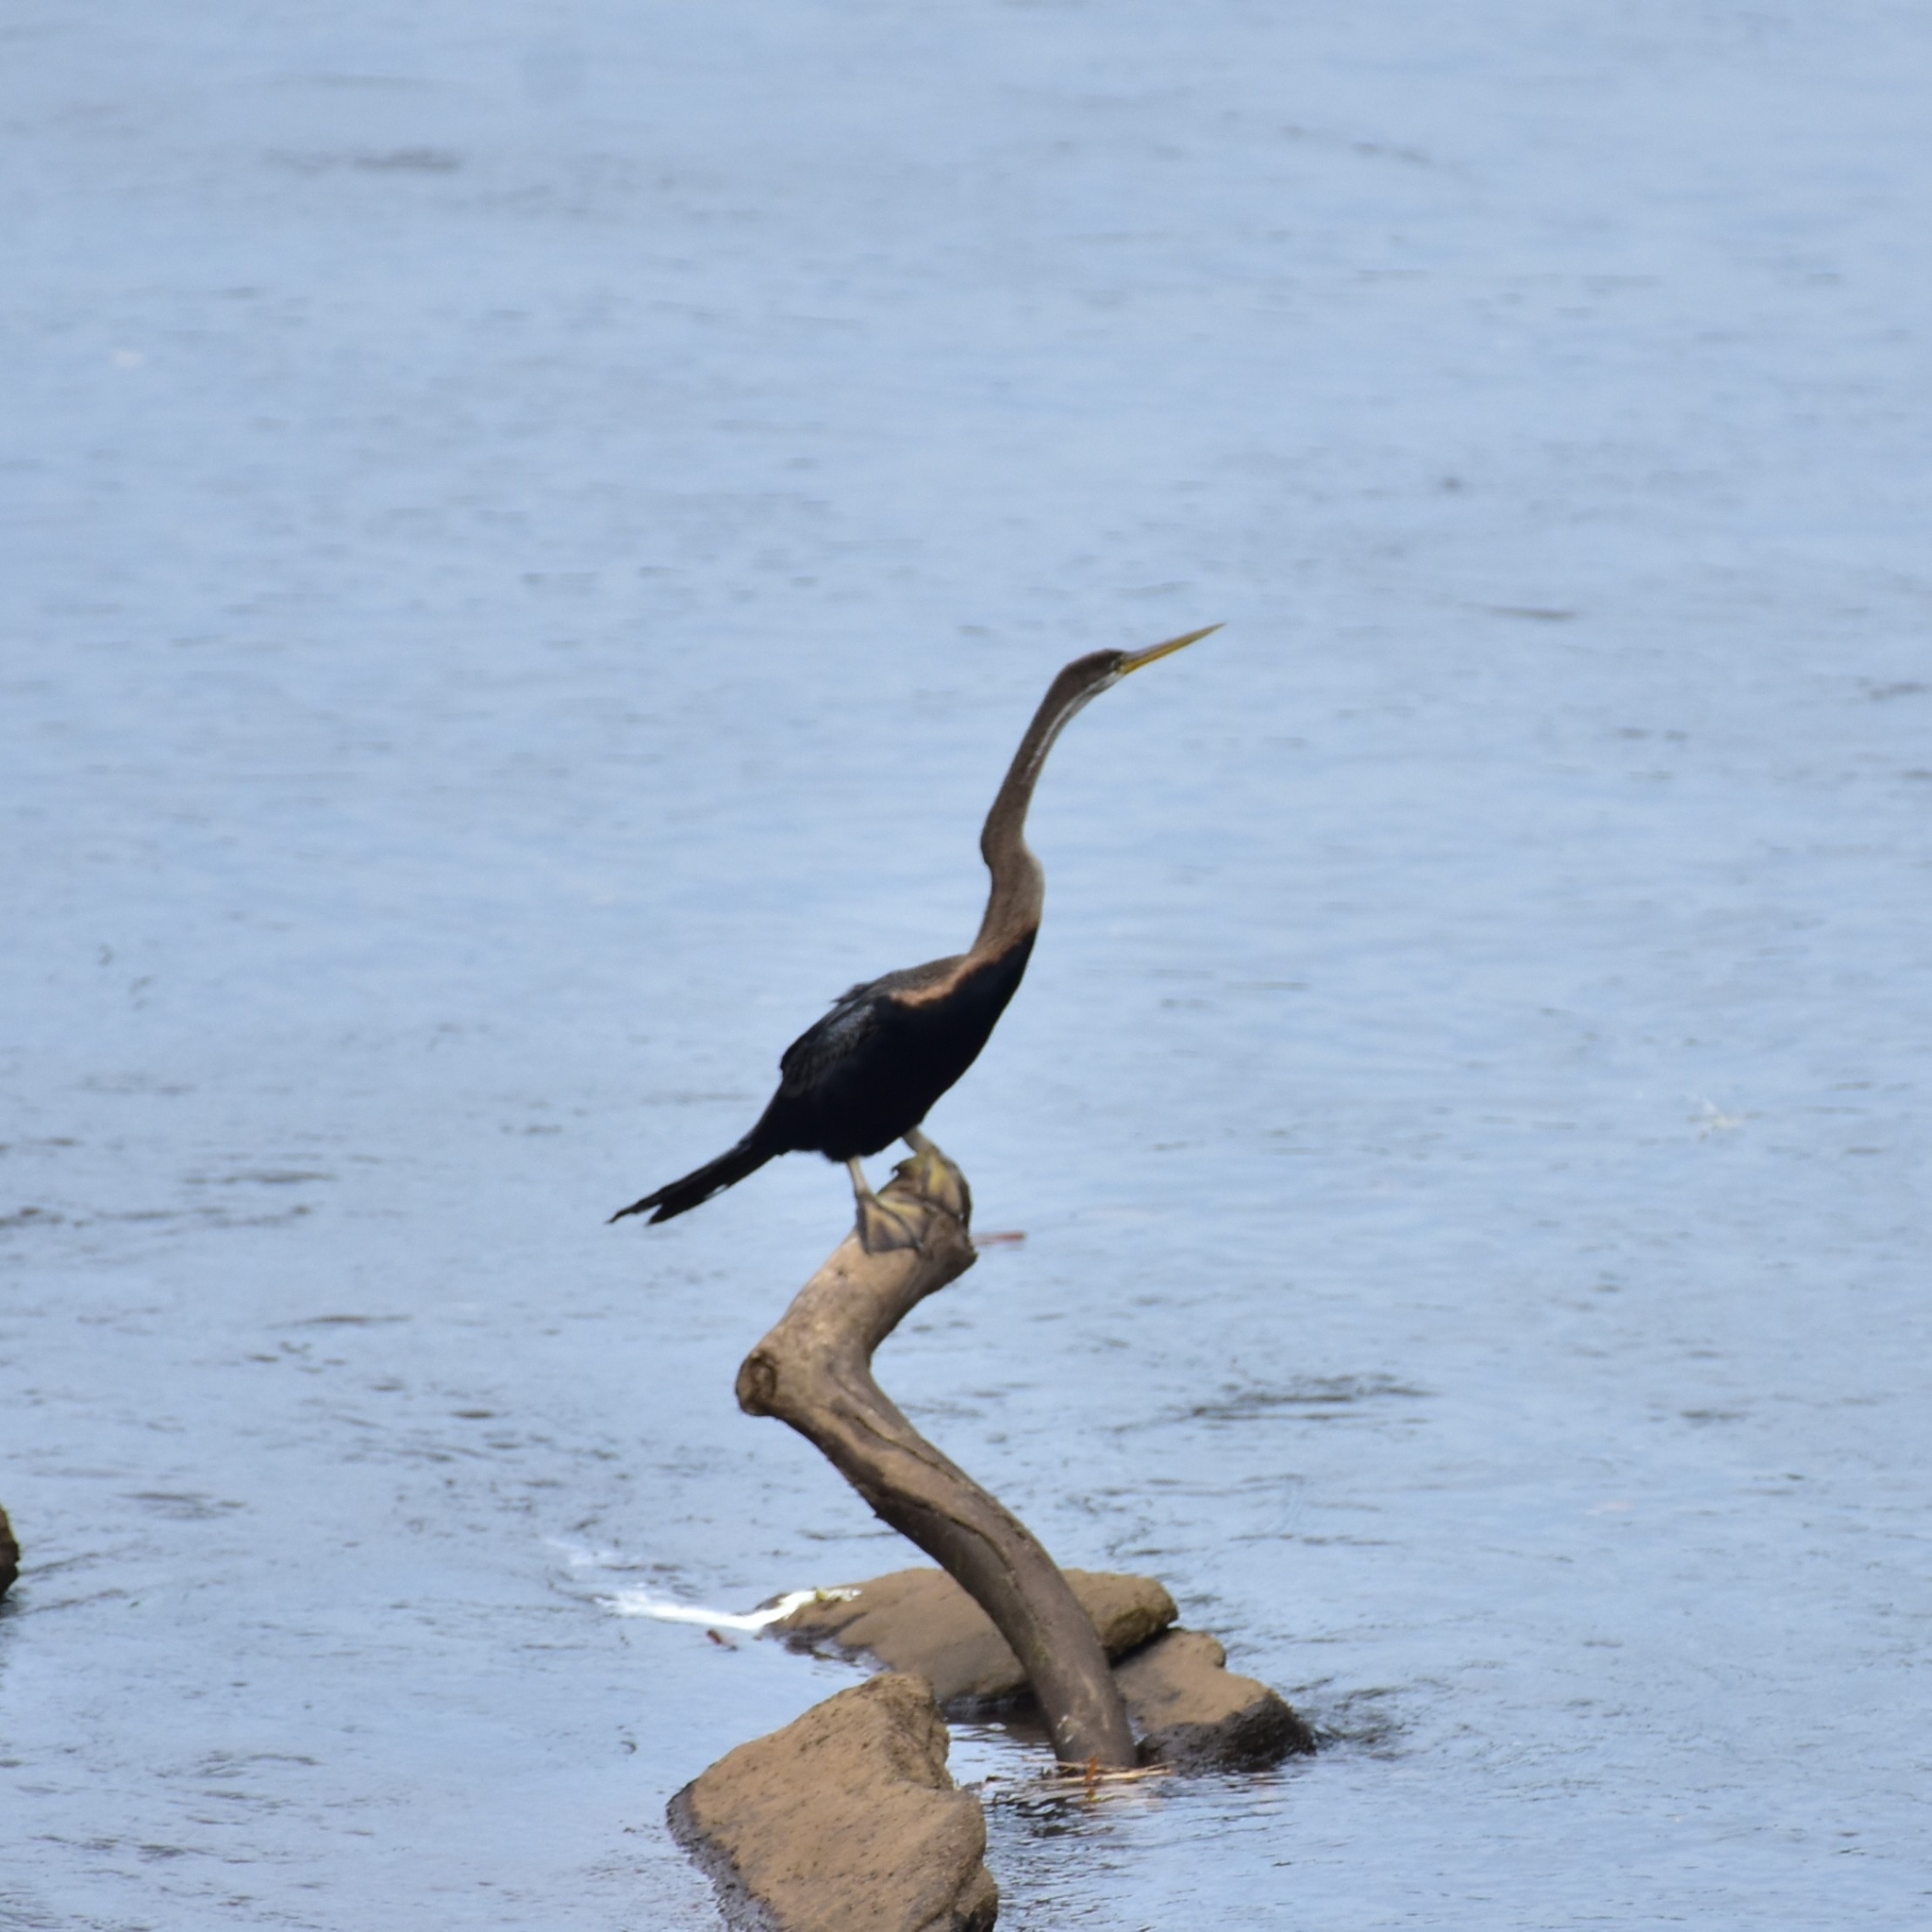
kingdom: Animalia
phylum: Chordata
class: Aves
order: Suliformes
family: Anhingidae
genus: Anhinga
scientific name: Anhinga melanogaster
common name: Oriental darter
